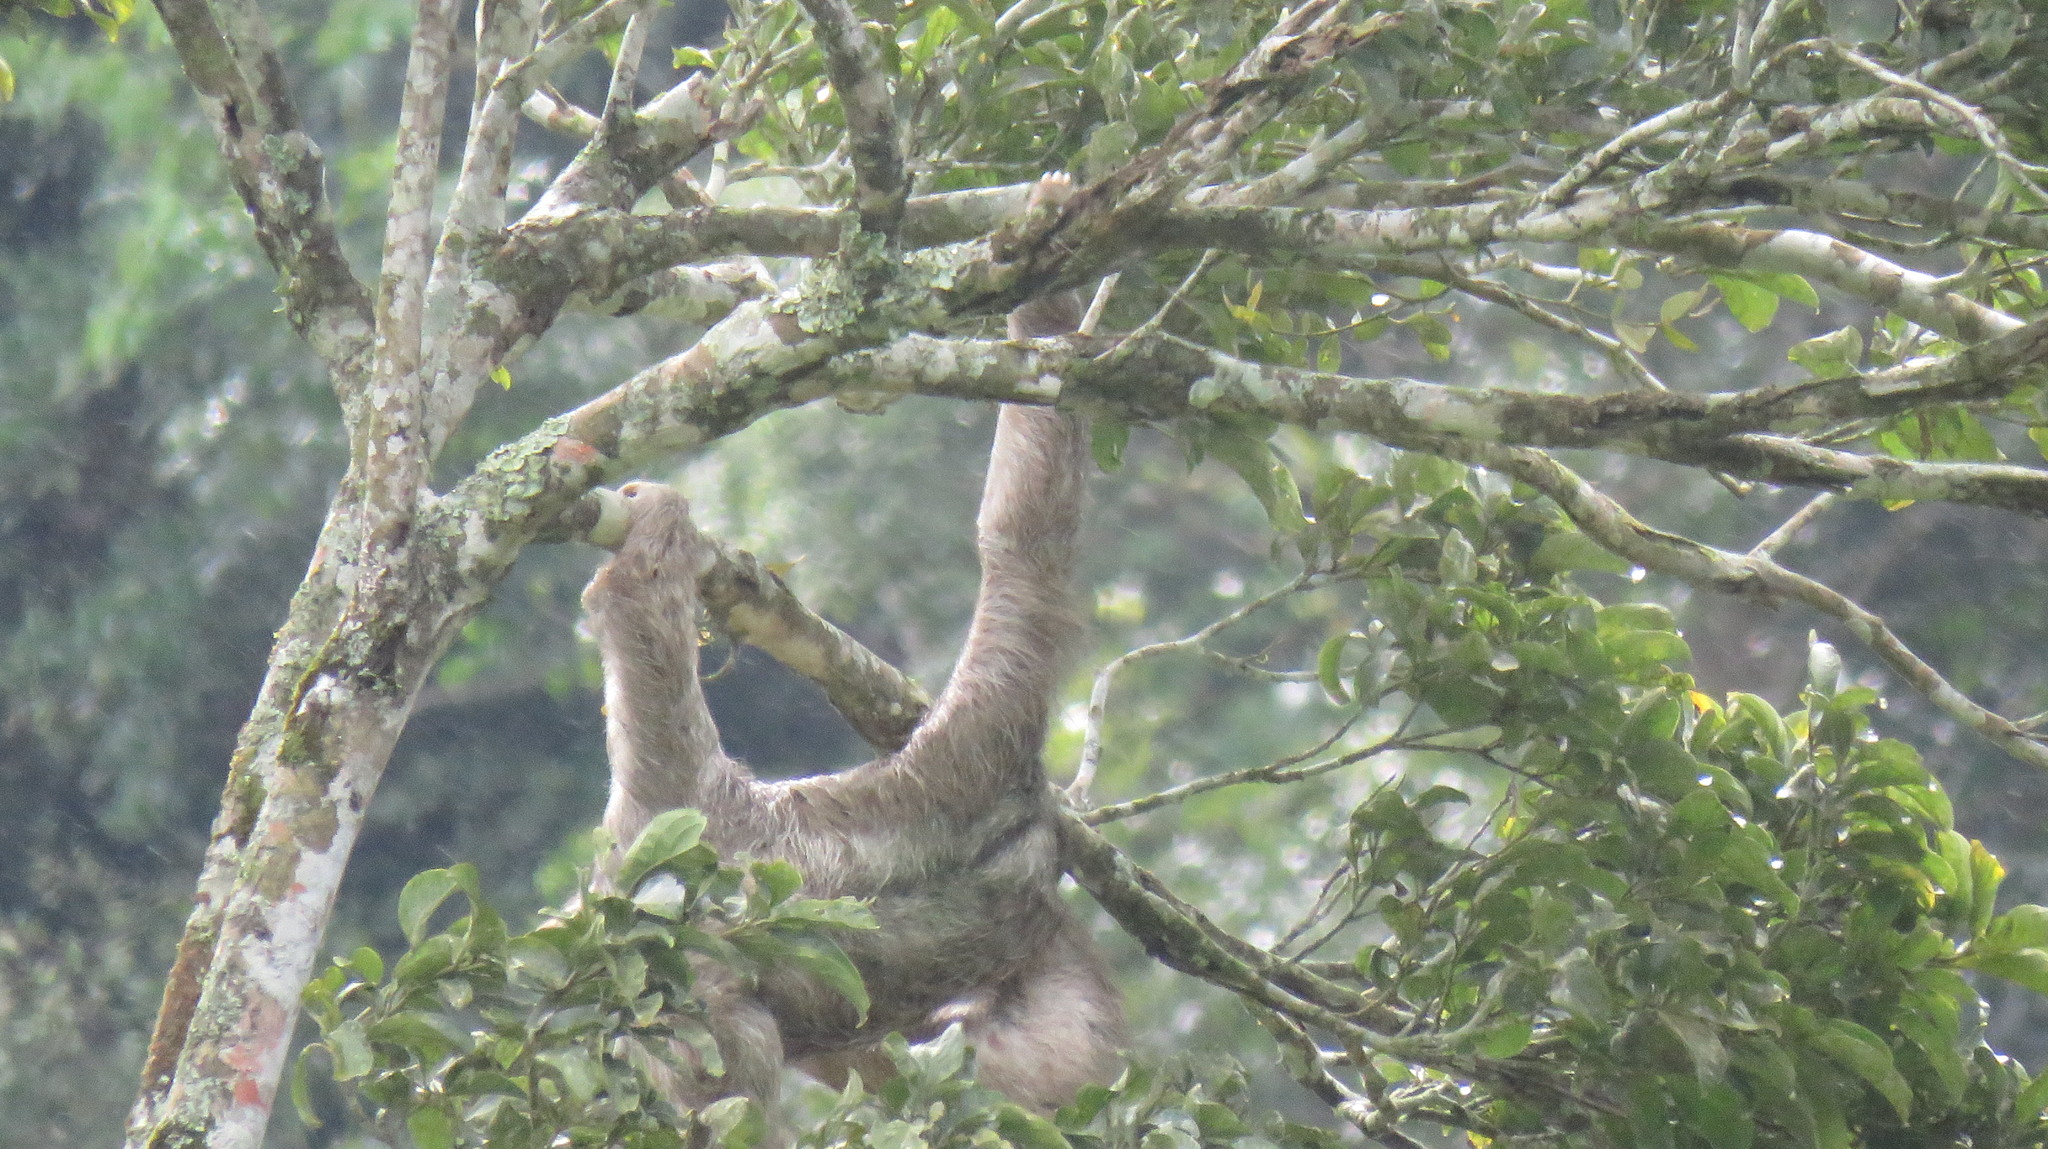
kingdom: Animalia
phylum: Chordata
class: Mammalia
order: Pilosa
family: Bradypodidae
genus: Bradypus
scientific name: Bradypus variegatus
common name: Brown-throated three-toed sloth
